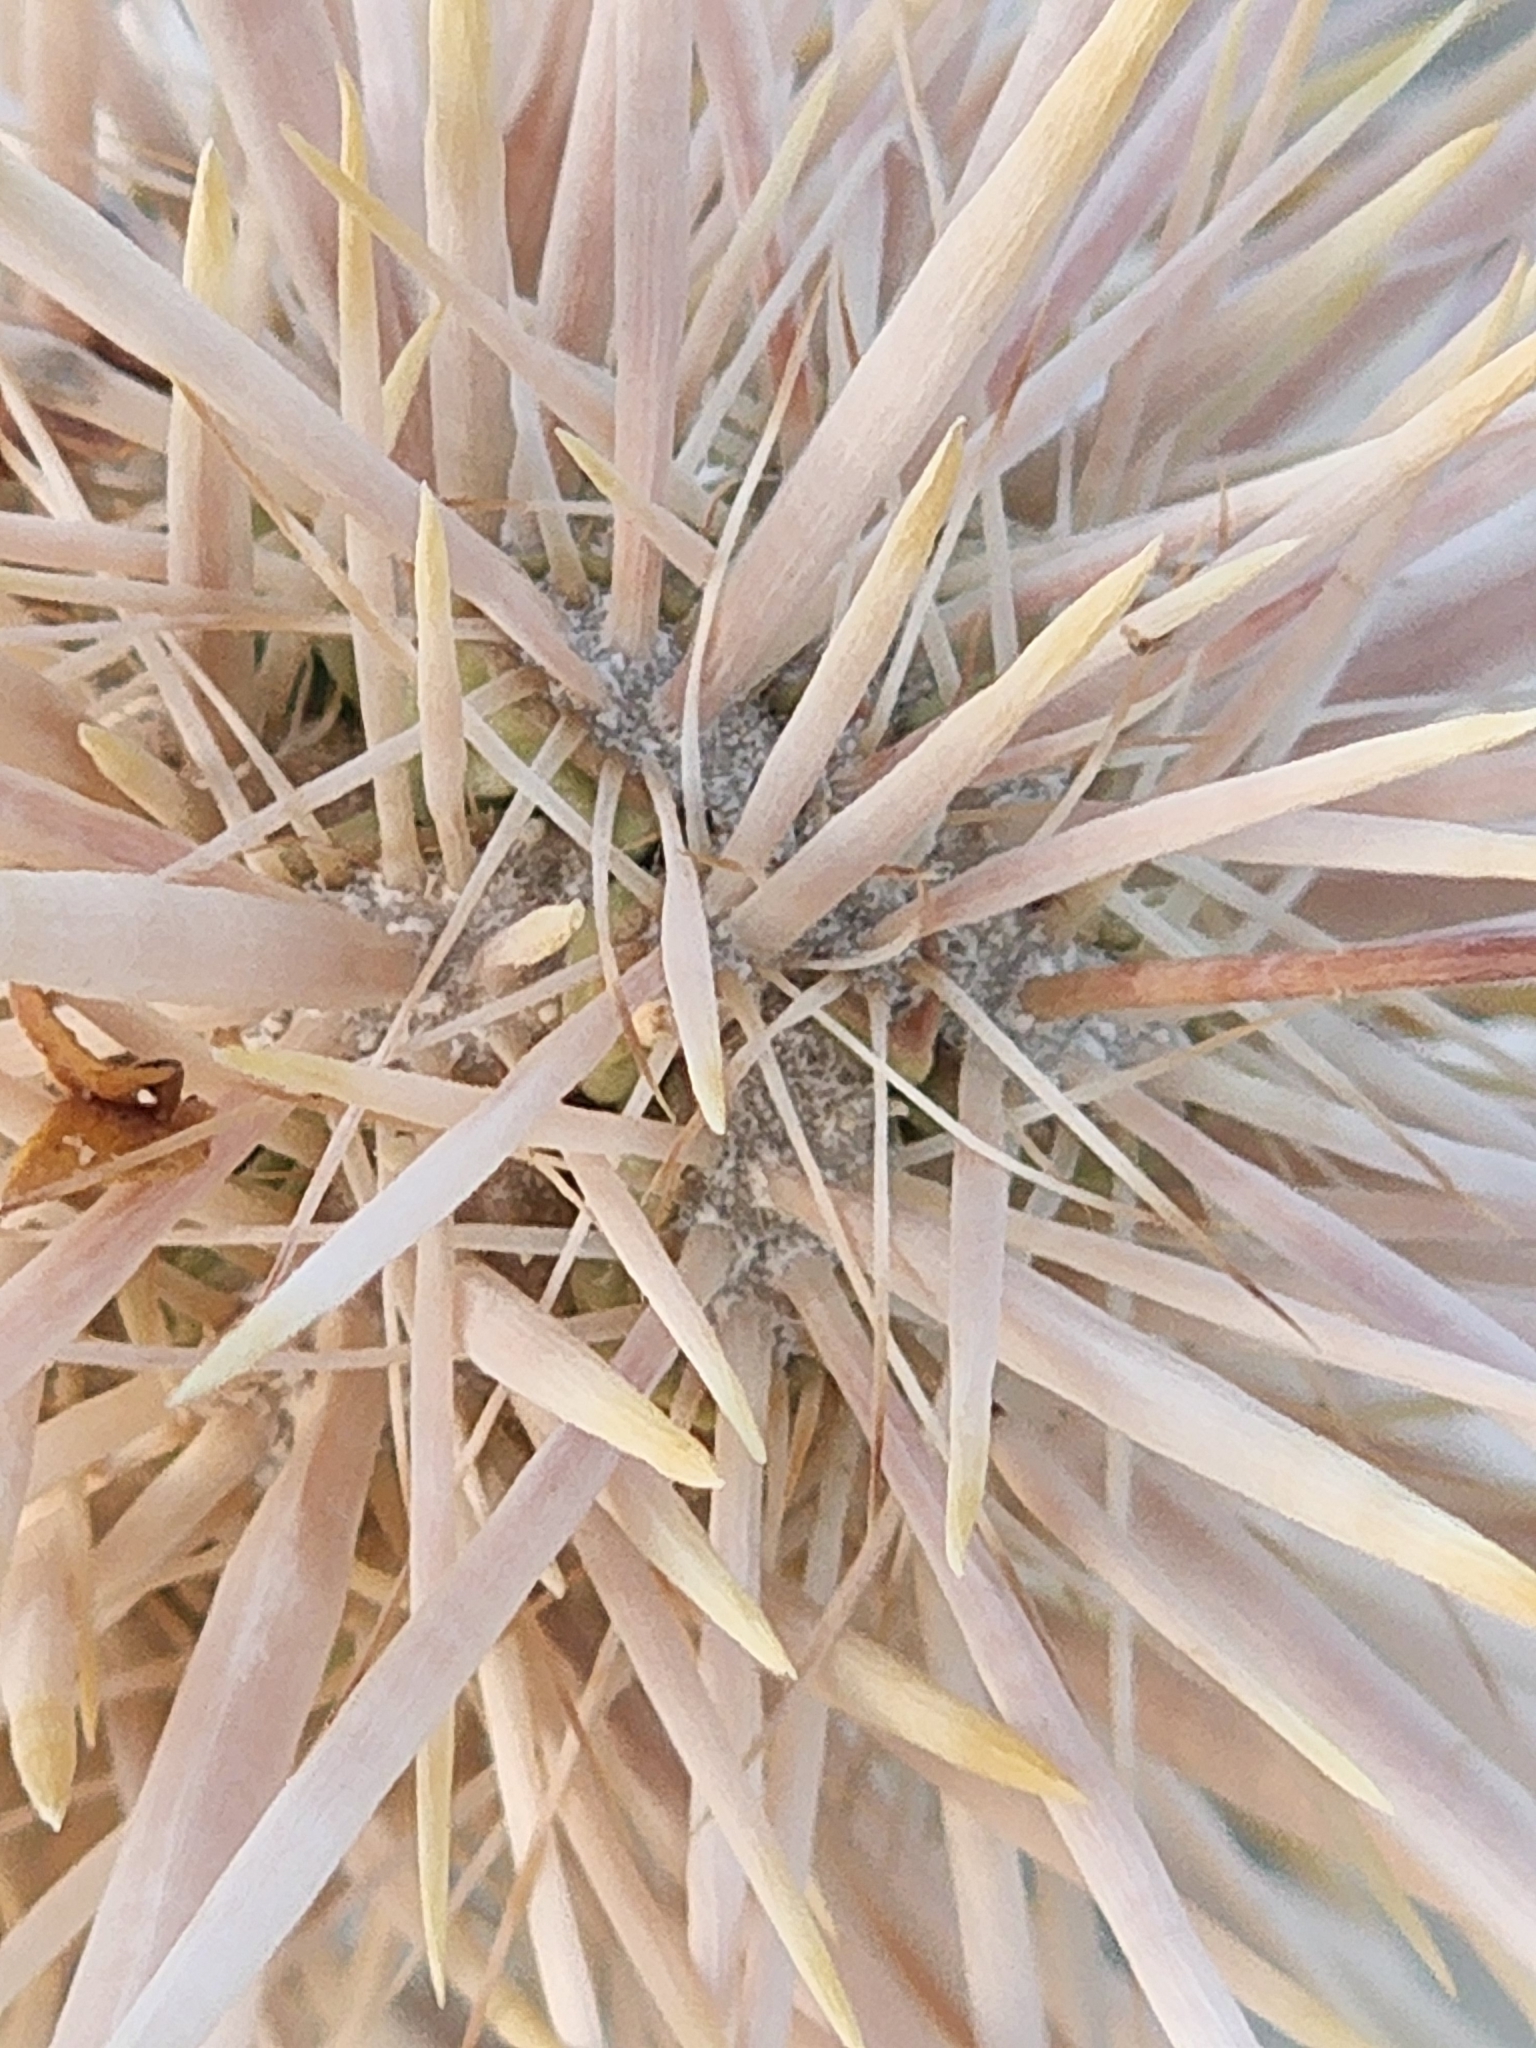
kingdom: Plantae
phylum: Tracheophyta
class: Magnoliopsida
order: Caryophyllales
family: Cactaceae
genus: Cylindropuntia
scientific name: Cylindropuntia echinocarpa
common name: Ground cholla
